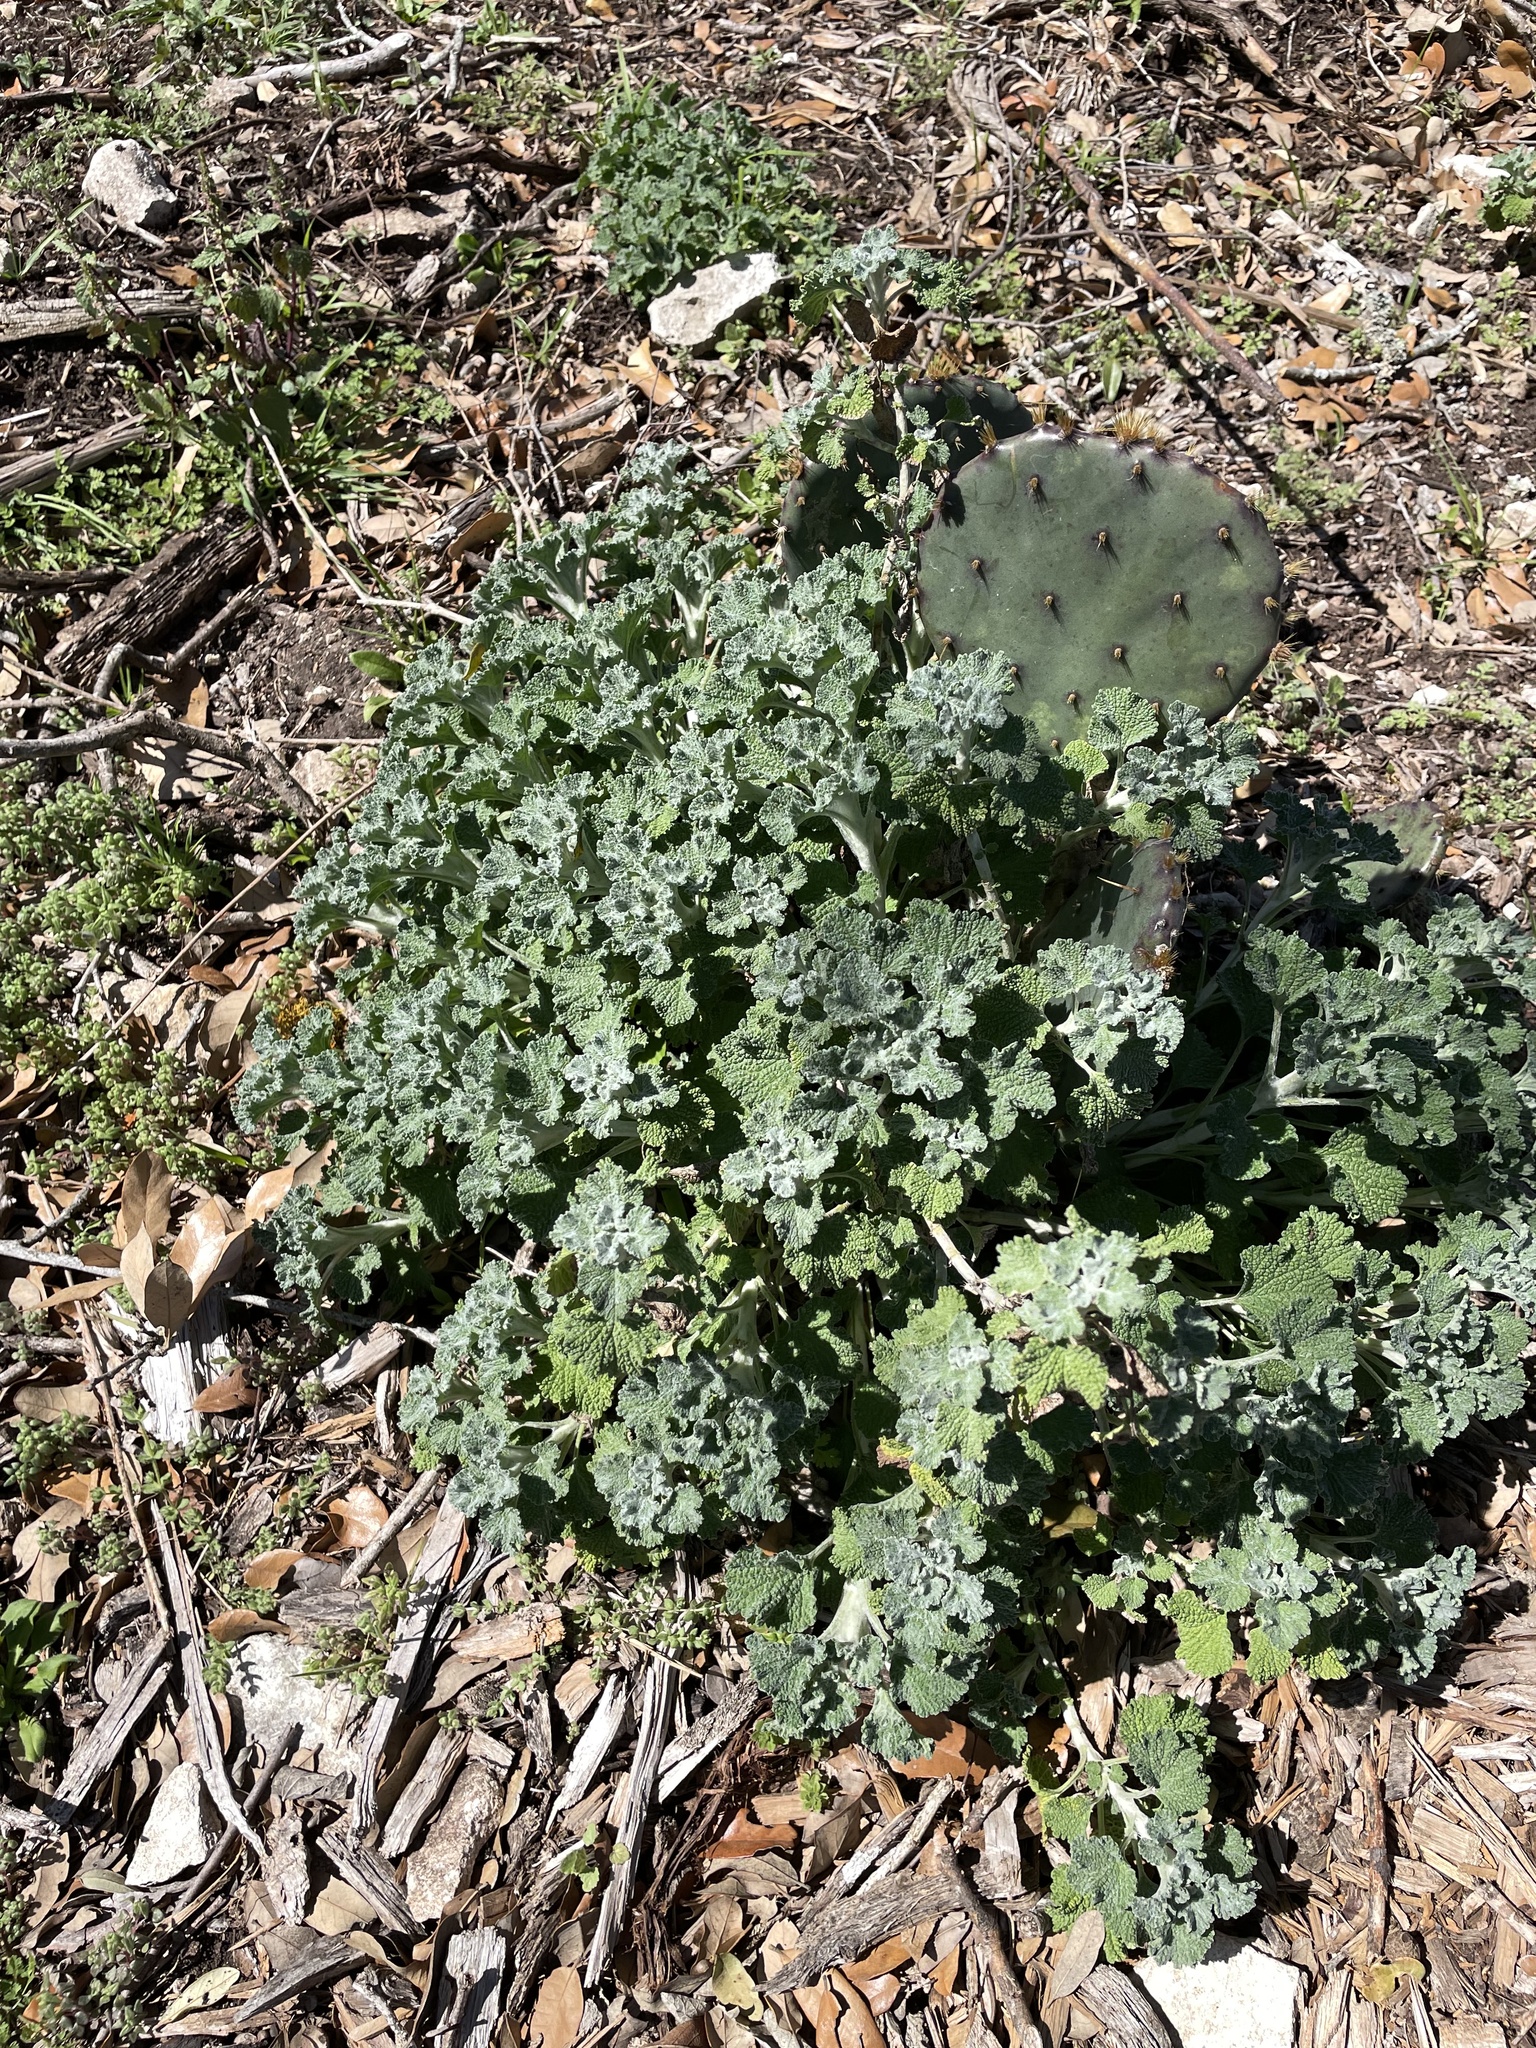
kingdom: Plantae
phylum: Tracheophyta
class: Magnoliopsida
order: Lamiales
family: Lamiaceae
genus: Marrubium
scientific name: Marrubium vulgare
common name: Horehound
